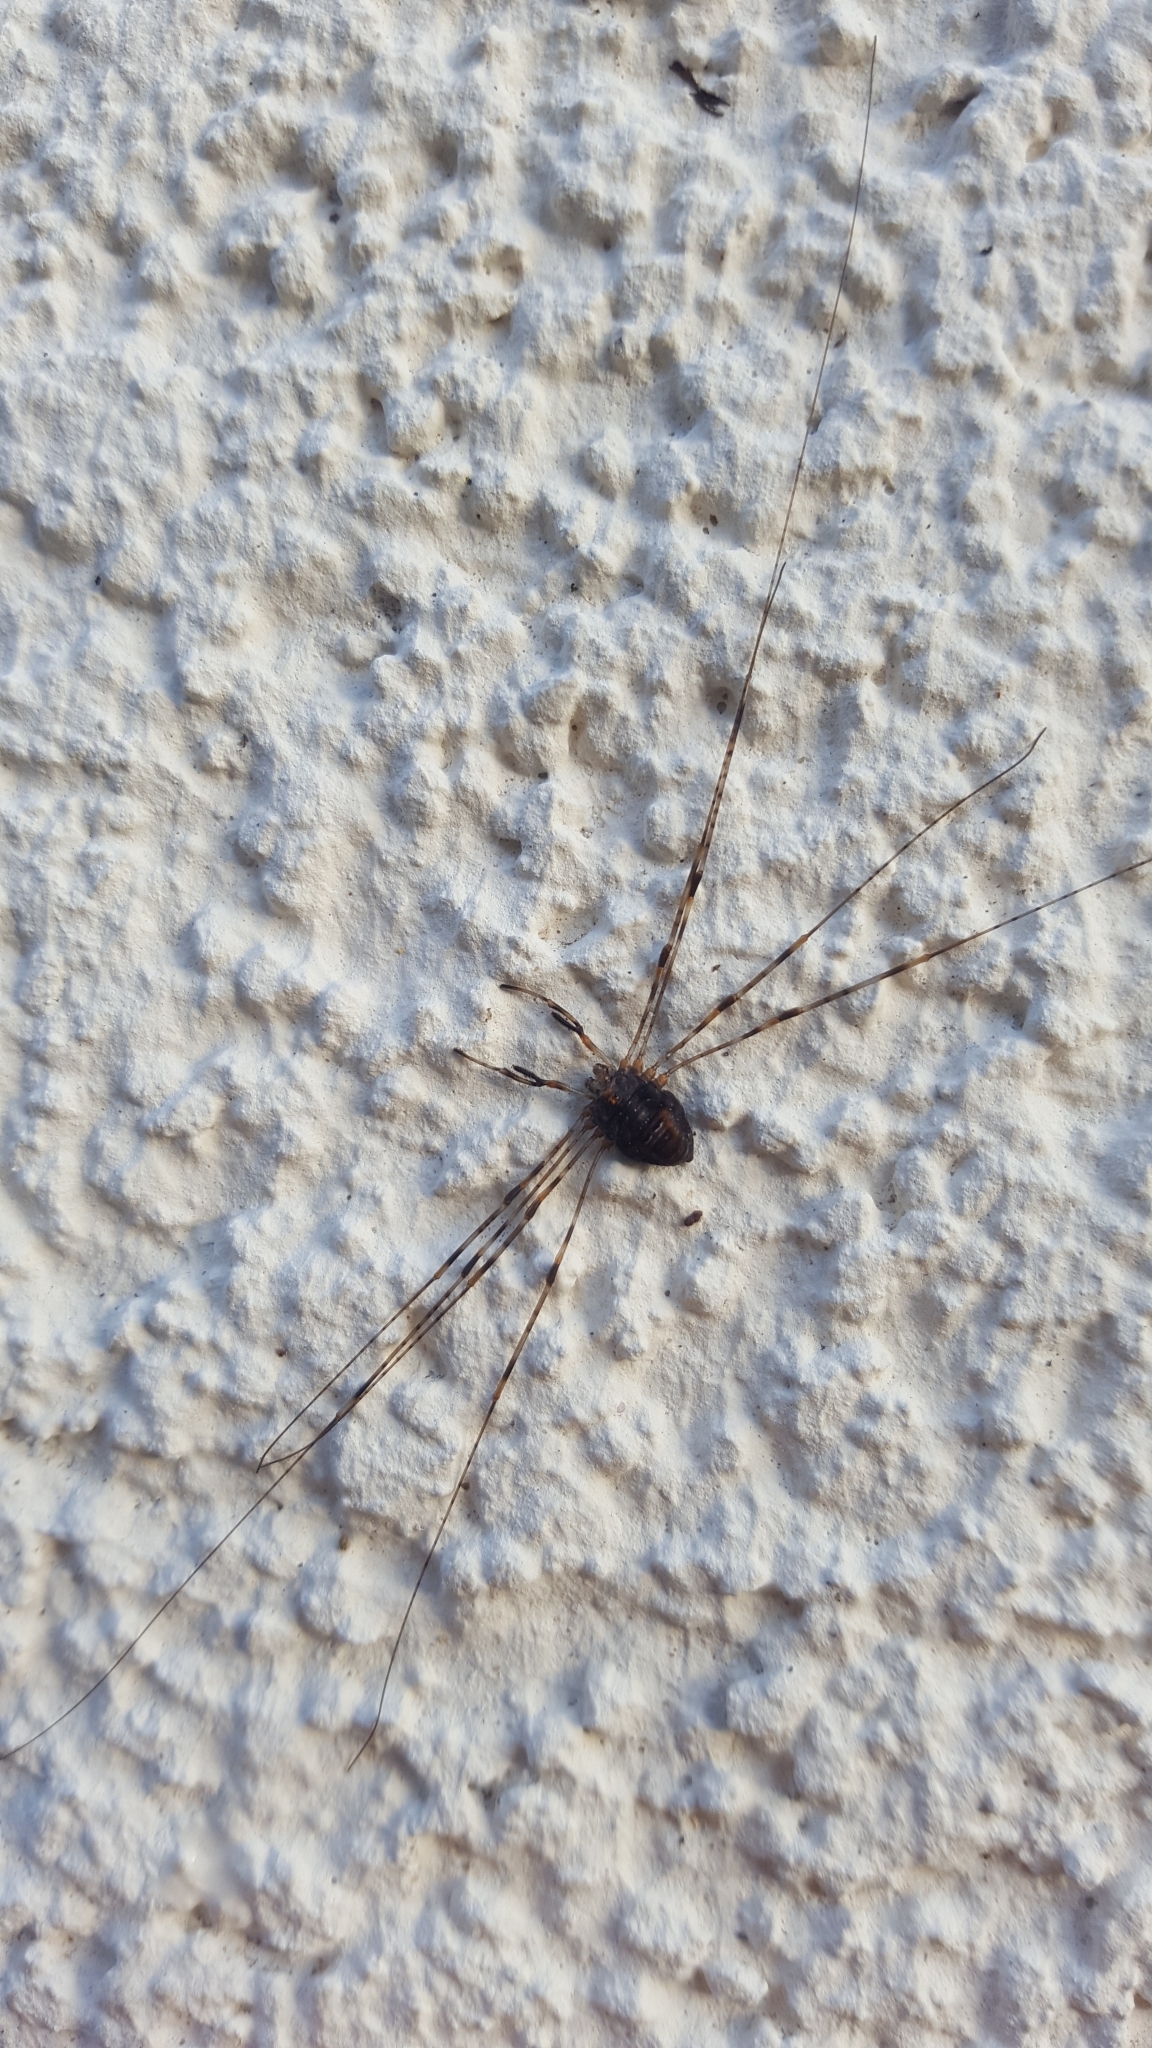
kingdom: Animalia
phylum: Arthropoda
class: Arachnida
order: Opiliones
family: Phalangiidae
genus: Dicranopalpus
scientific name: Dicranopalpus ramosus
